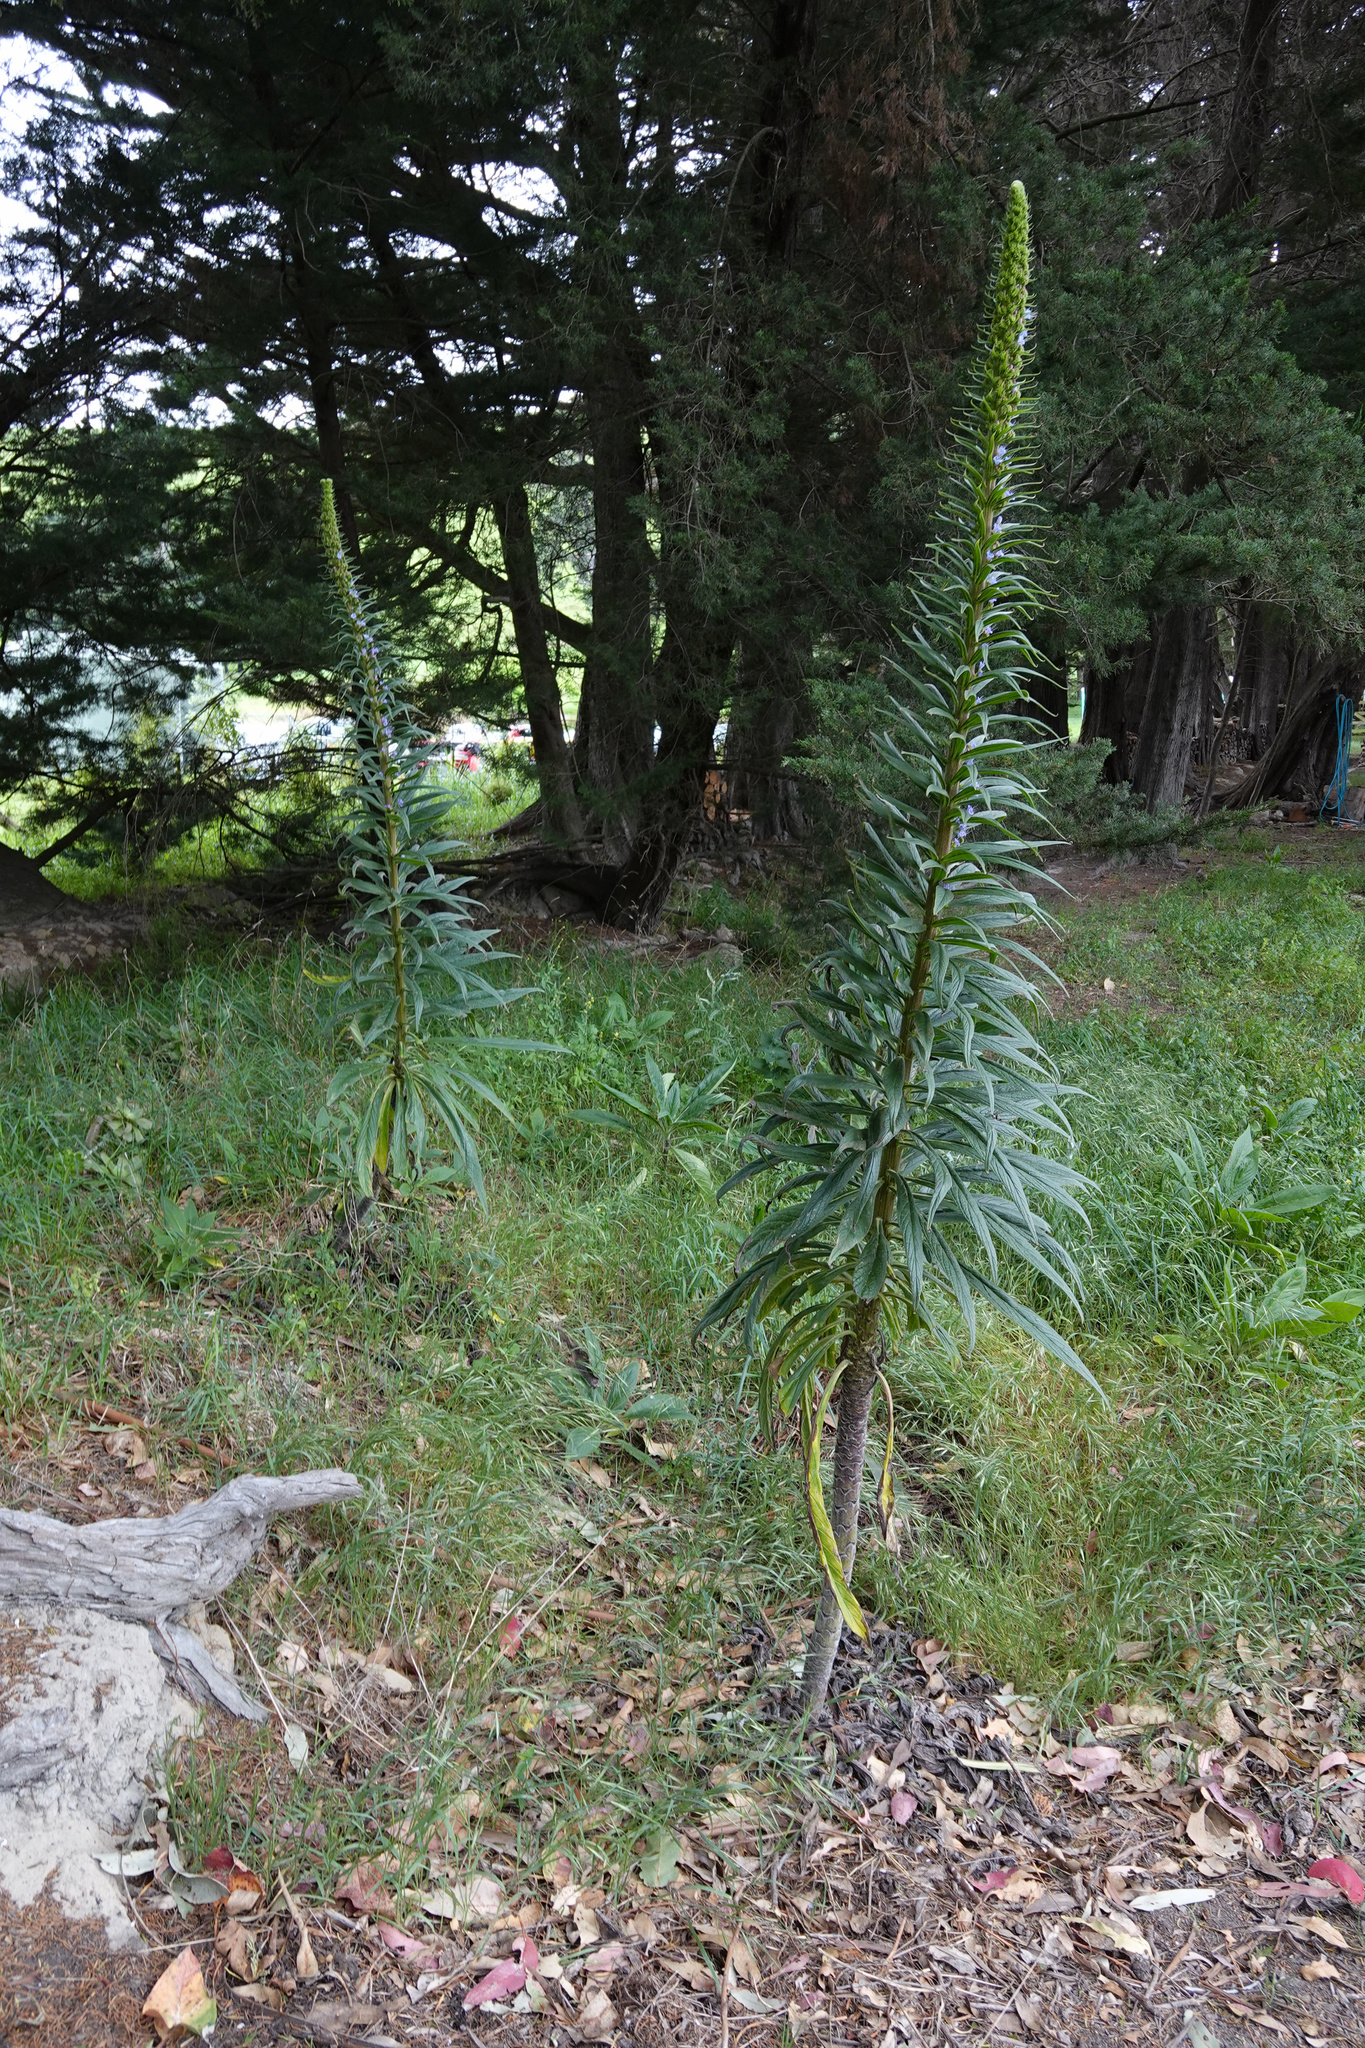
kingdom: Plantae
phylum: Tracheophyta
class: Magnoliopsida
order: Boraginales
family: Boraginaceae
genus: Echium
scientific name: Echium pininana
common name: Giant viper's-bugloss
